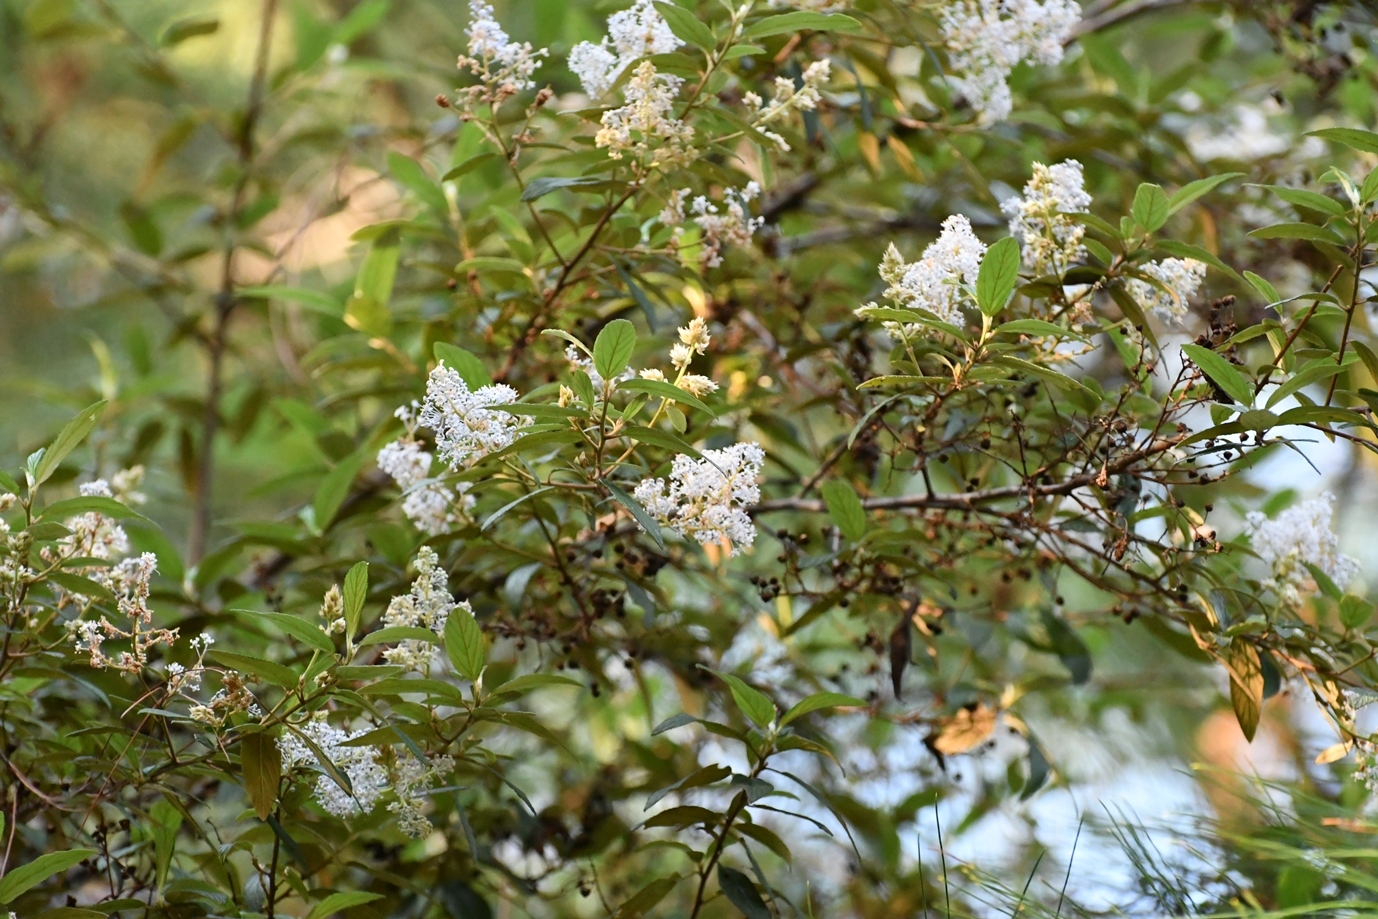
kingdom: Plantae
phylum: Tracheophyta
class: Magnoliopsida
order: Rosales
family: Rhamnaceae
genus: Ceanothus
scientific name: Ceanothus caeruleus
